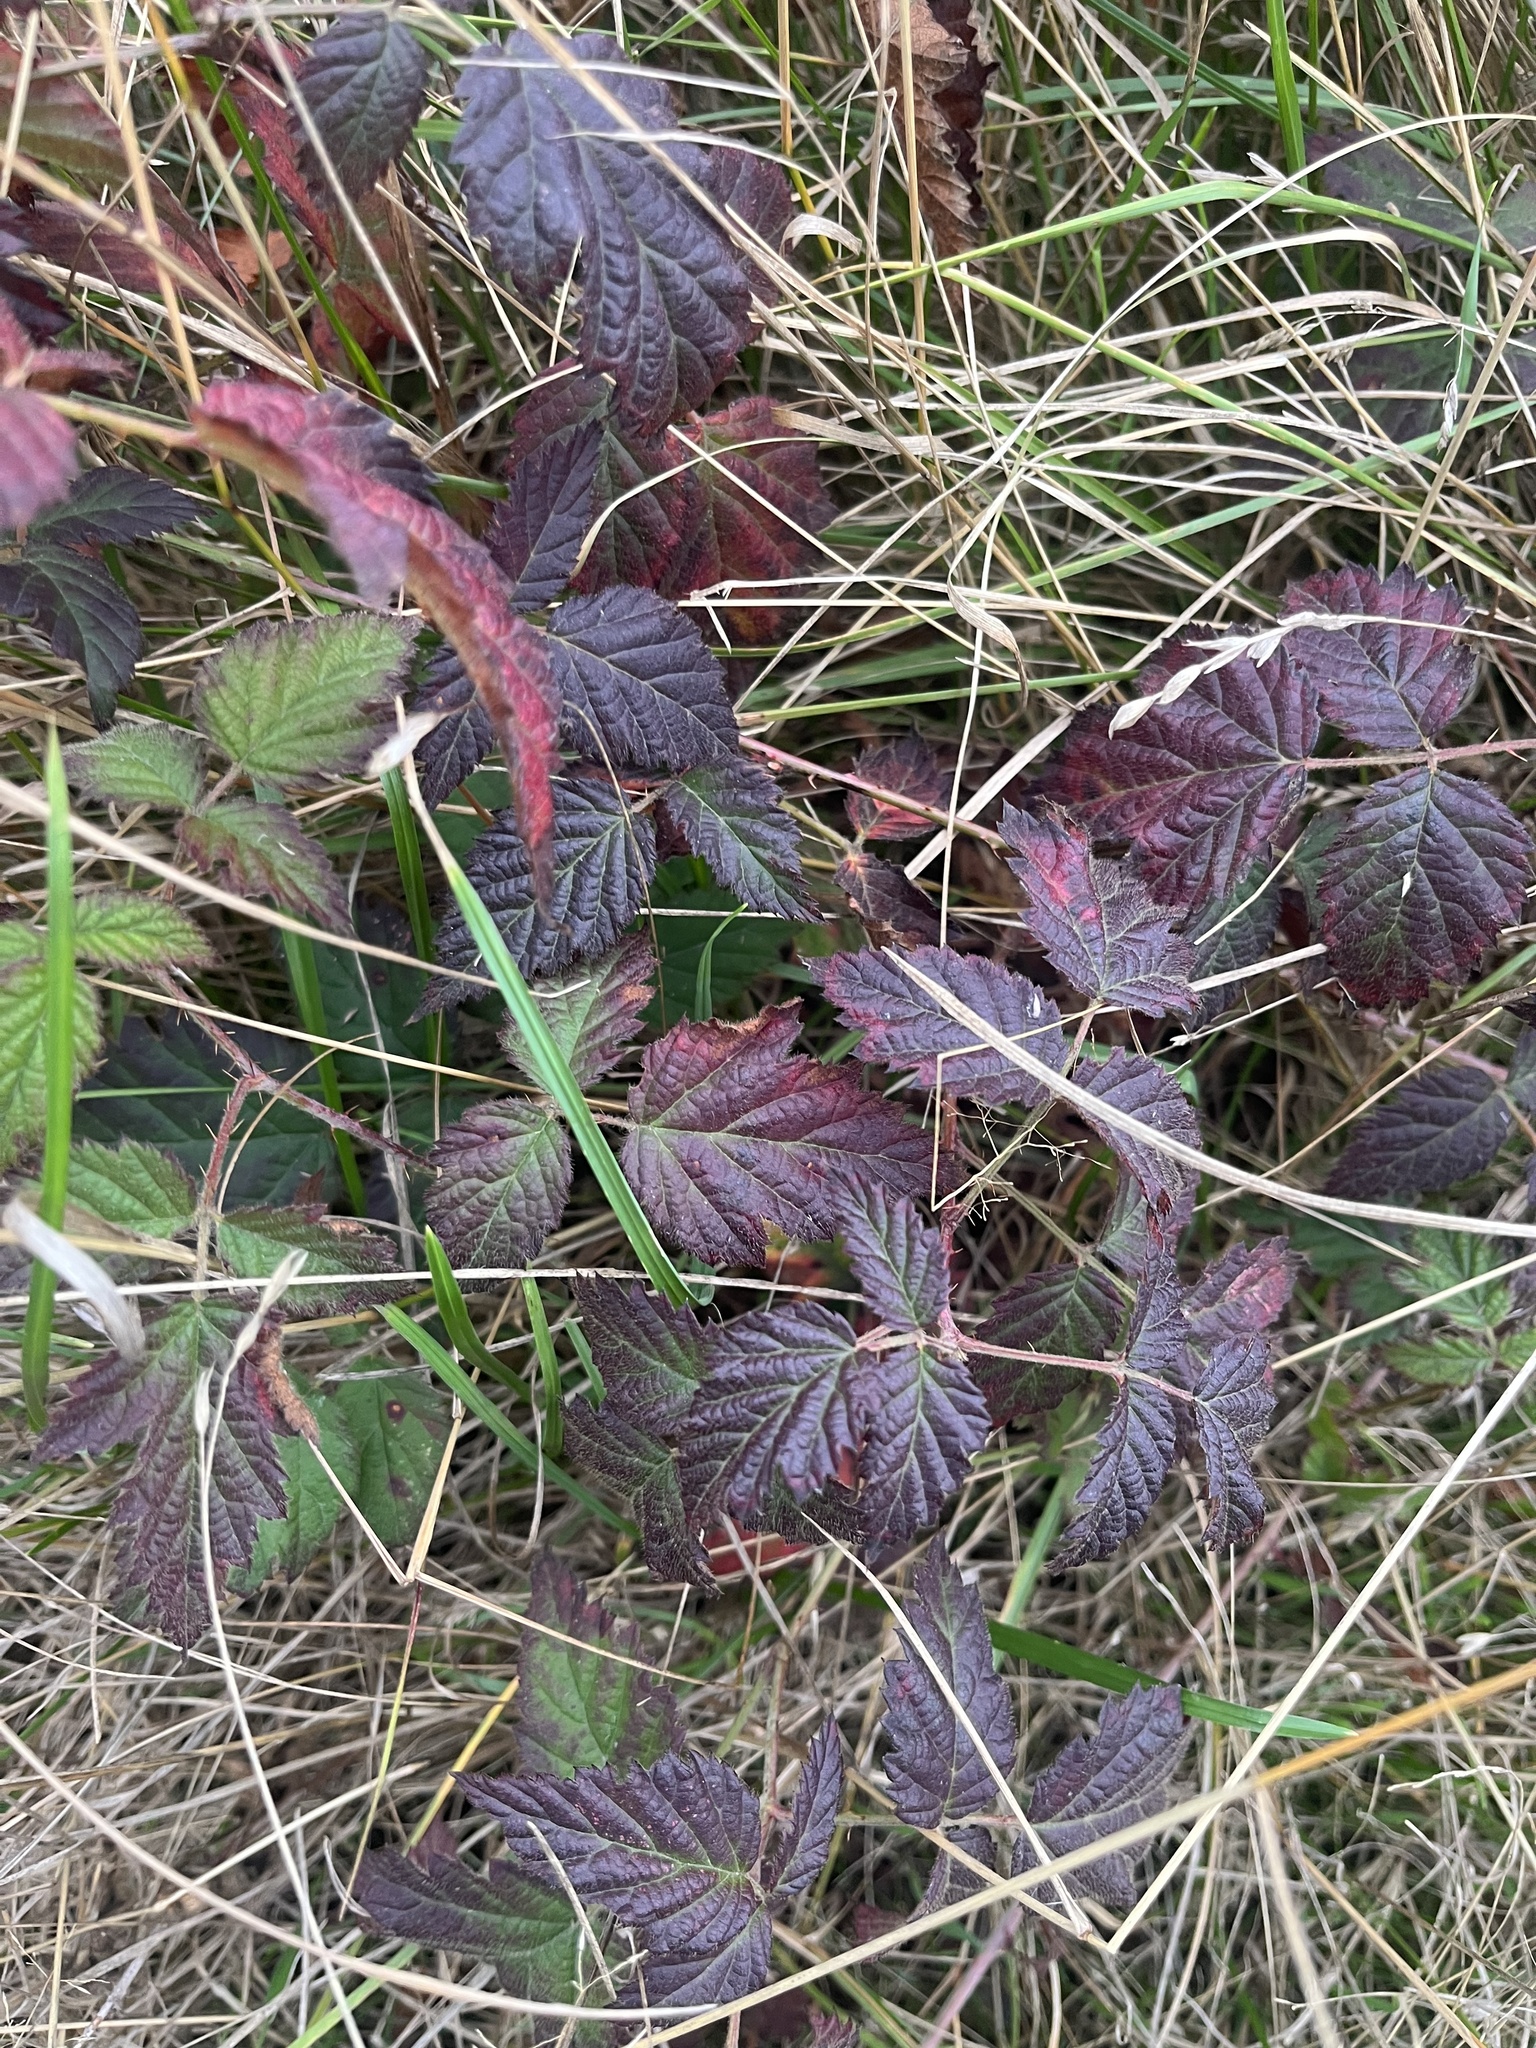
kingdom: Plantae
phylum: Tracheophyta
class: Magnoliopsida
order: Rosales
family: Rosaceae
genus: Rubus
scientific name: Rubus ursinus
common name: Pacific blackberry
